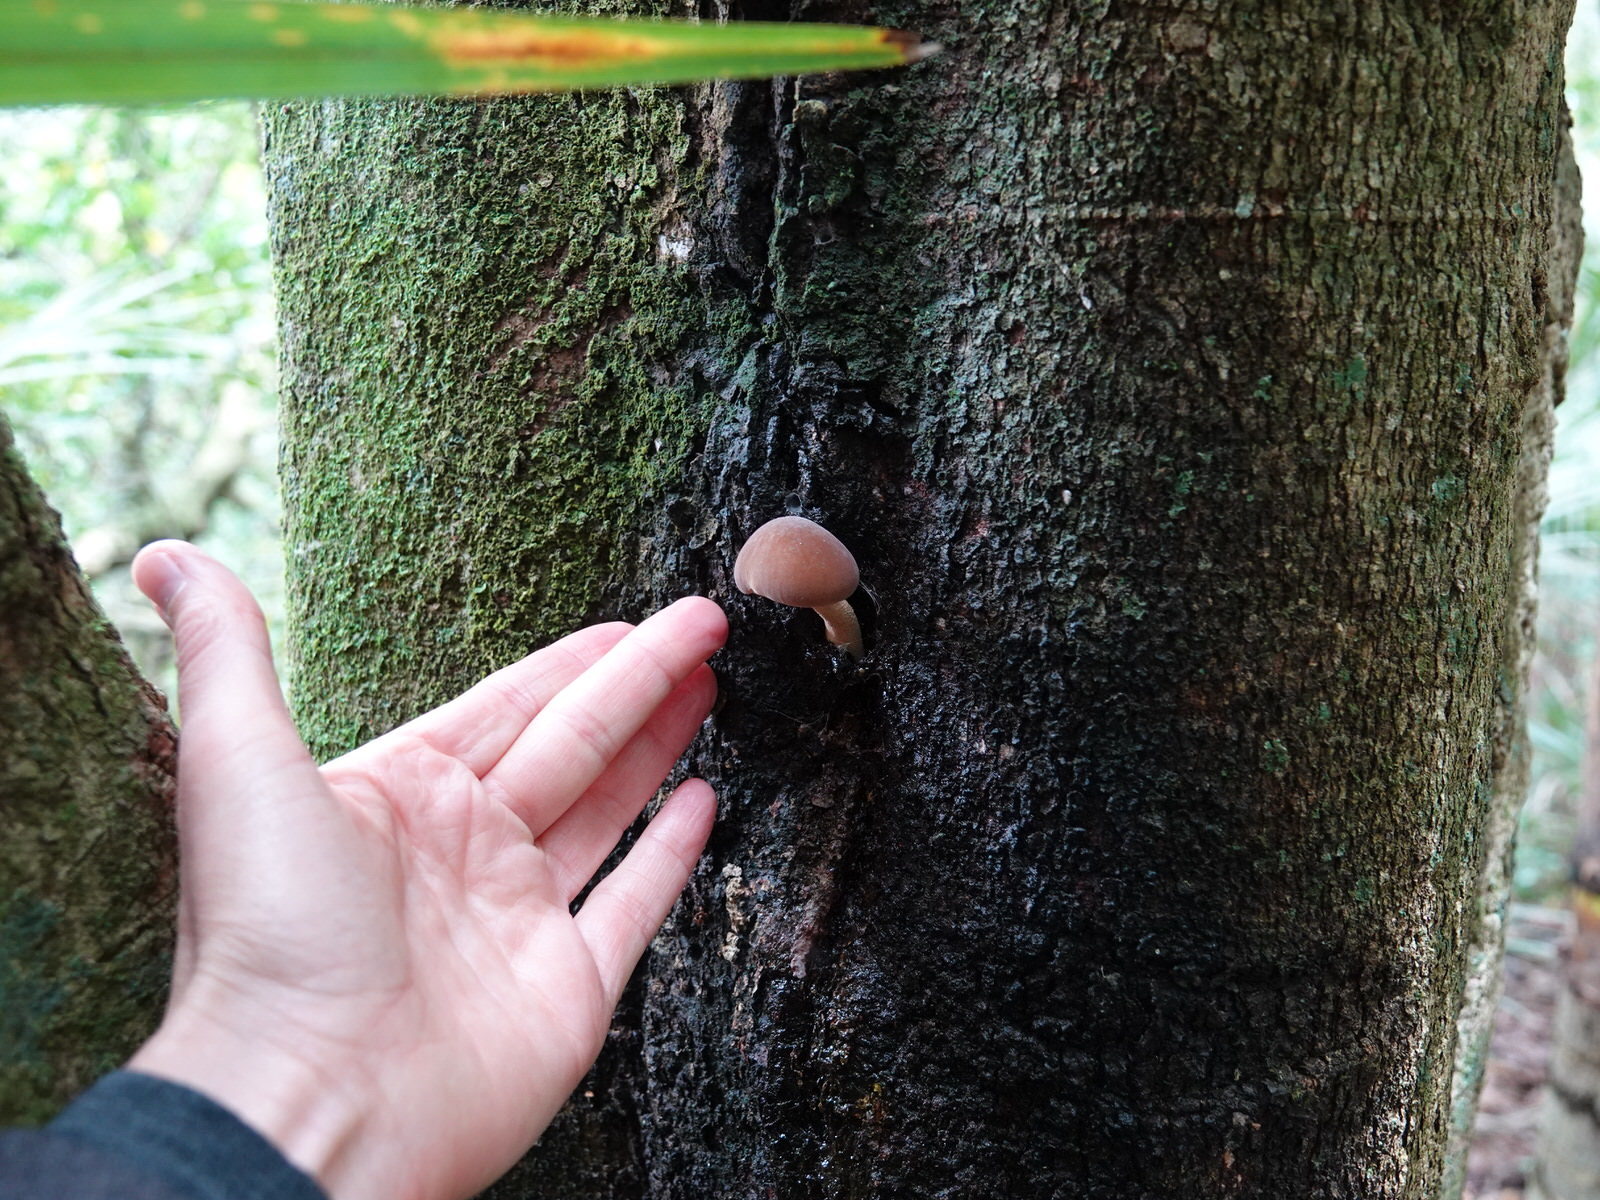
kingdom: Fungi
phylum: Basidiomycota
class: Agaricomycetes
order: Agaricales
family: Tubariaceae
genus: Cyclocybe
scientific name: Cyclocybe parasitica
